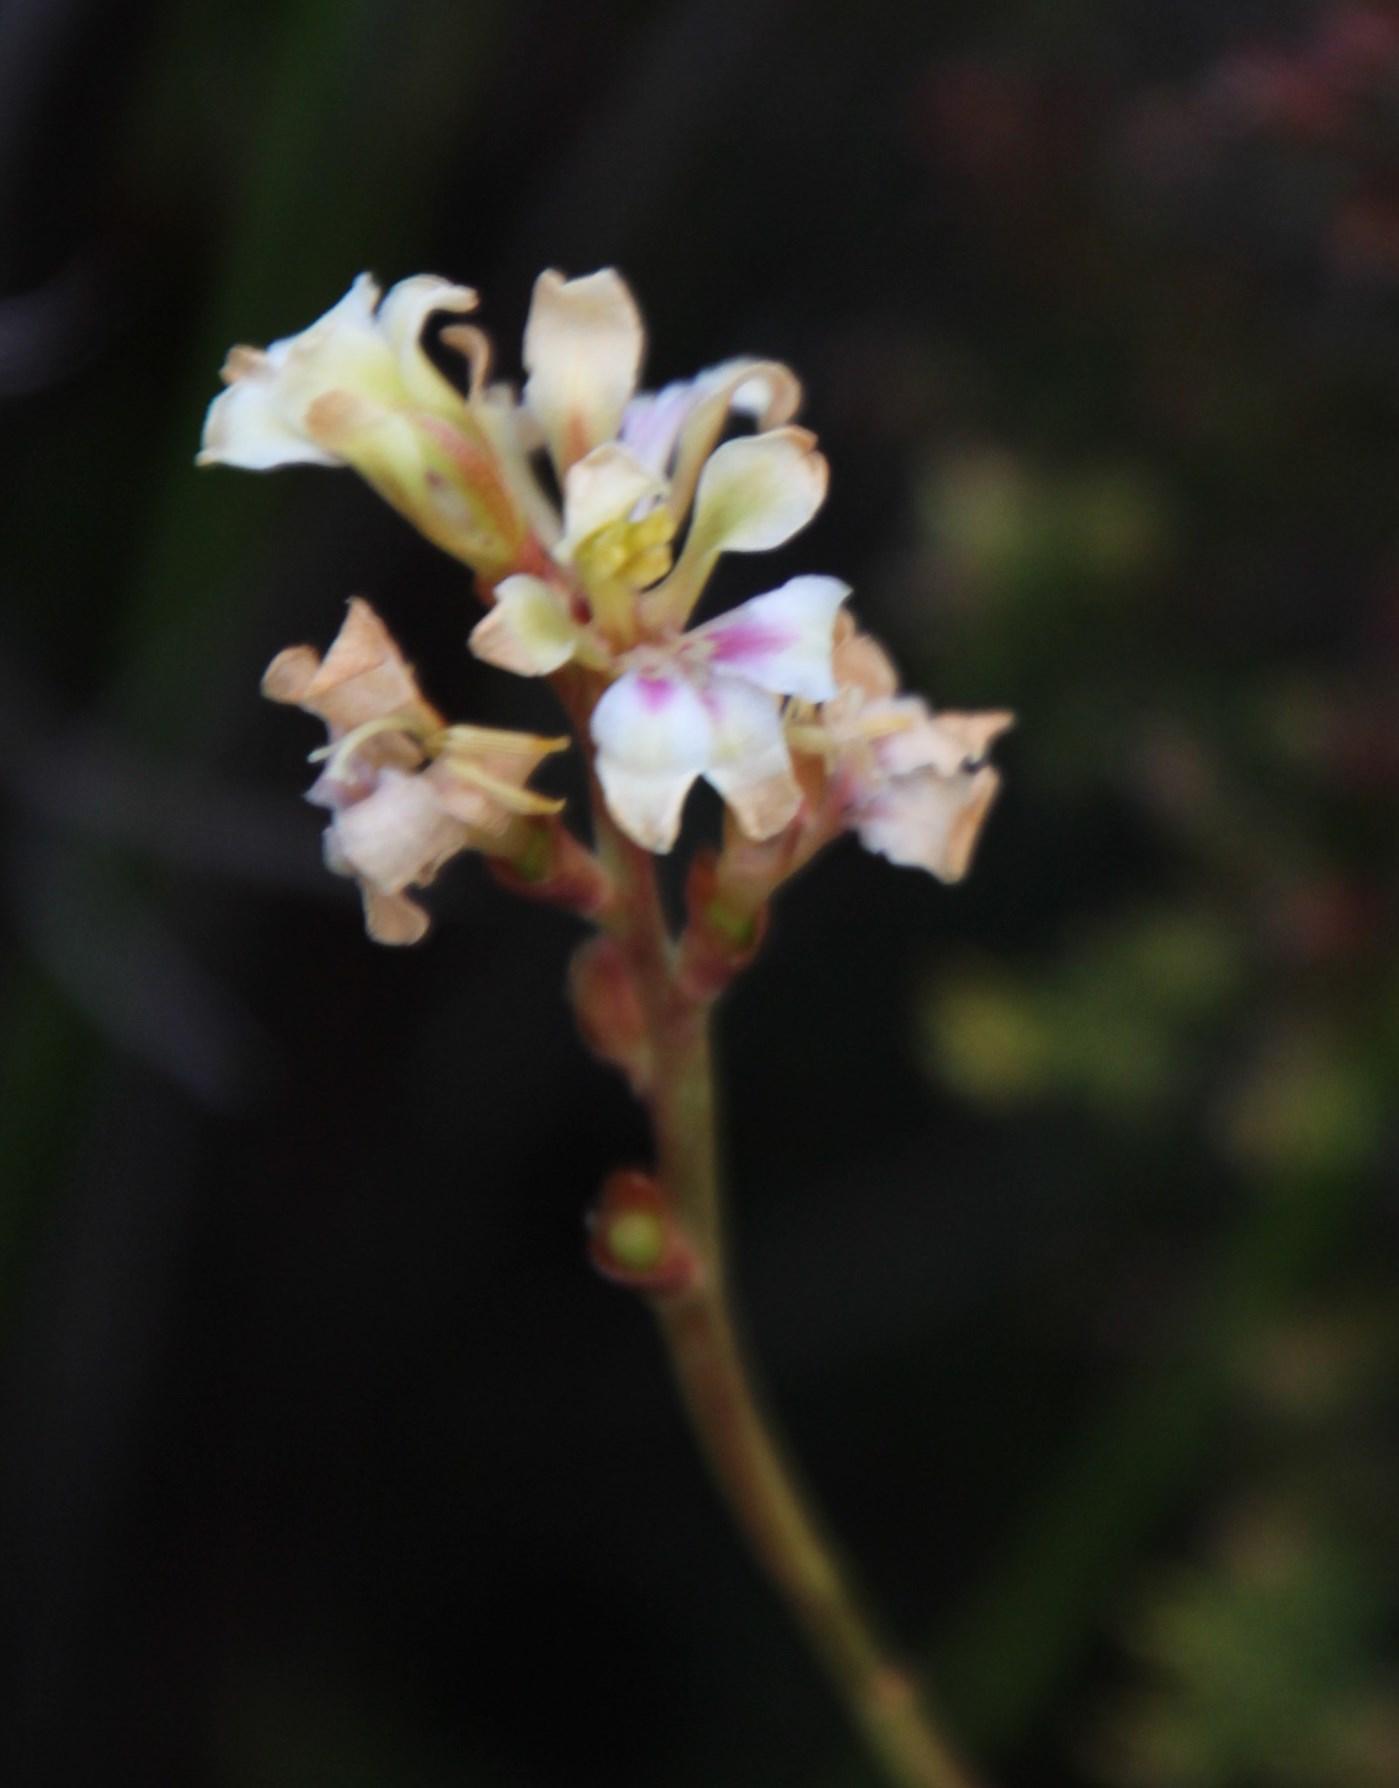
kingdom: Plantae
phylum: Tracheophyta
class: Liliopsida
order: Asparagales
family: Iridaceae
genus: Tritoniopsis
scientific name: Tritoniopsis unguicularis
